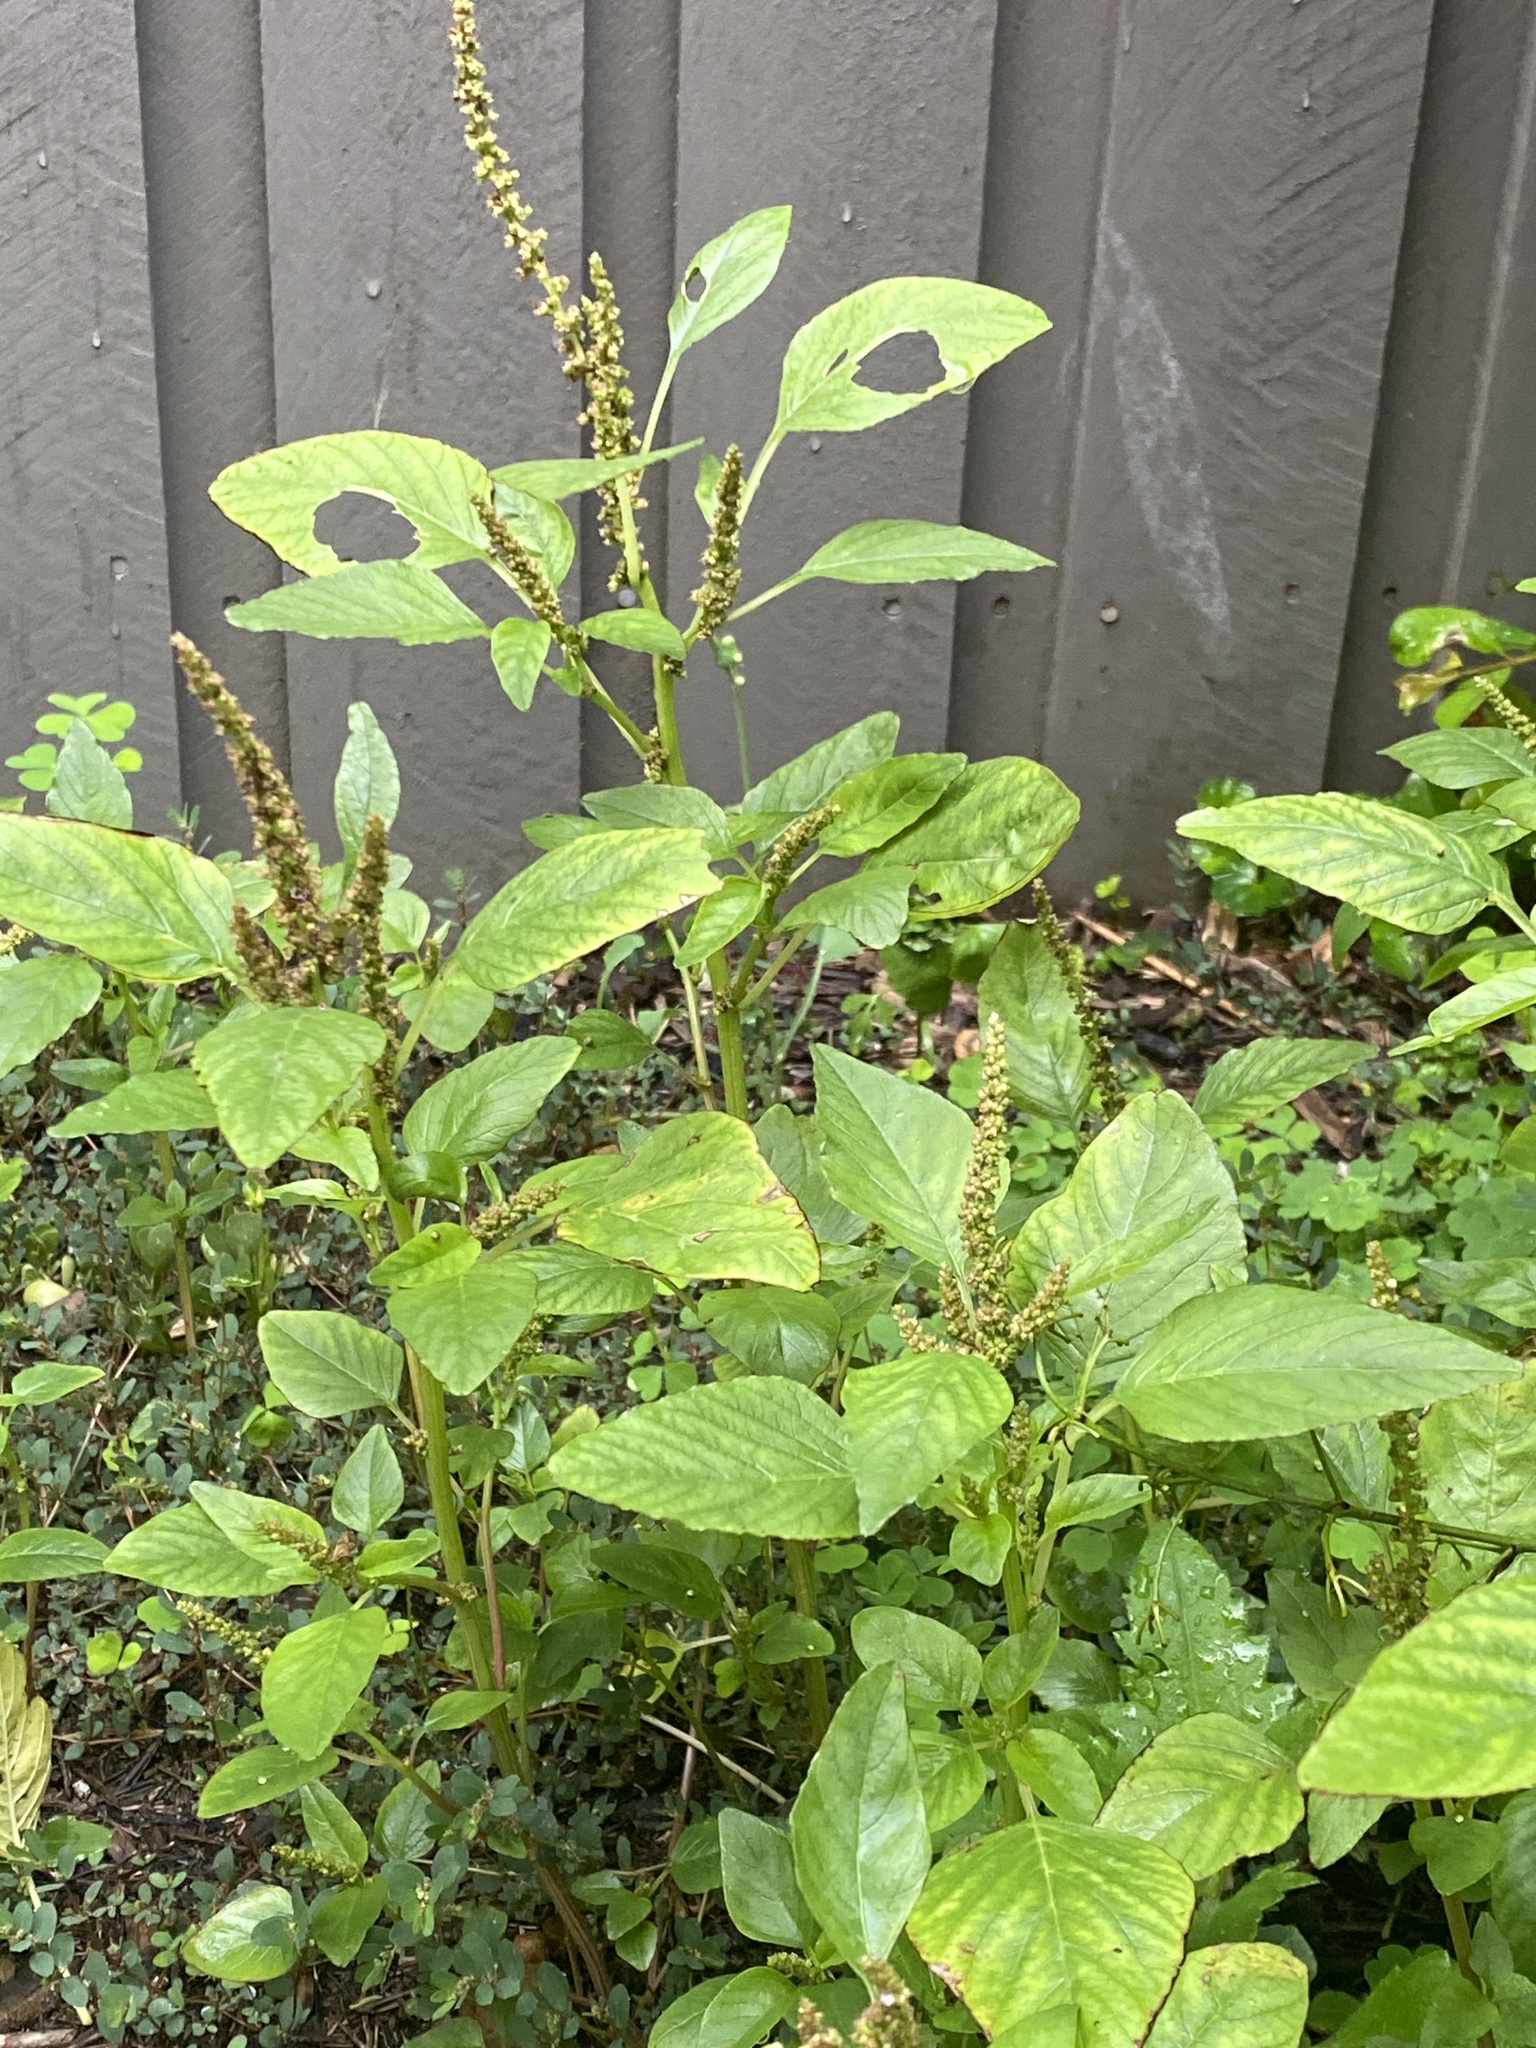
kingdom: Plantae
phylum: Tracheophyta
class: Magnoliopsida
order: Caryophyllales
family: Amaranthaceae
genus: Amaranthus
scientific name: Amaranthus viridis
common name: Slender amaranth
